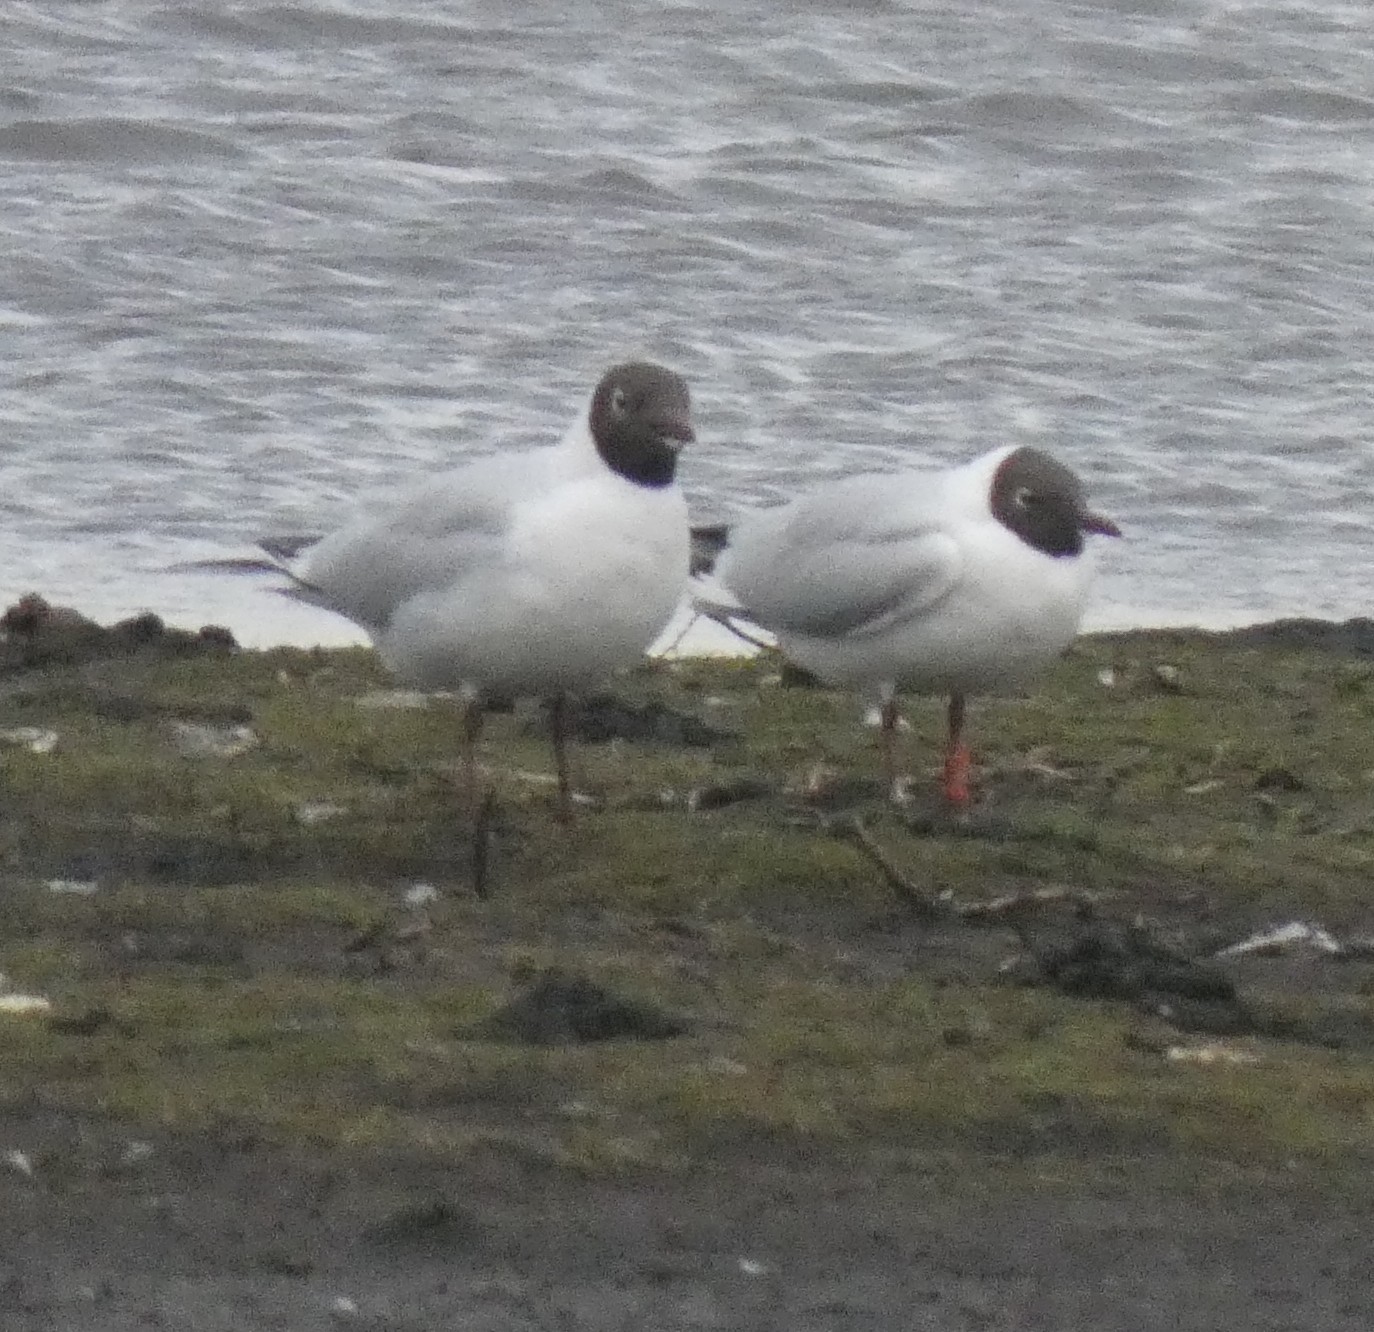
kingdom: Animalia
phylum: Chordata
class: Aves
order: Charadriiformes
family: Laridae
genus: Chroicocephalus
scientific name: Chroicocephalus ridibundus
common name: Black-headed gull
